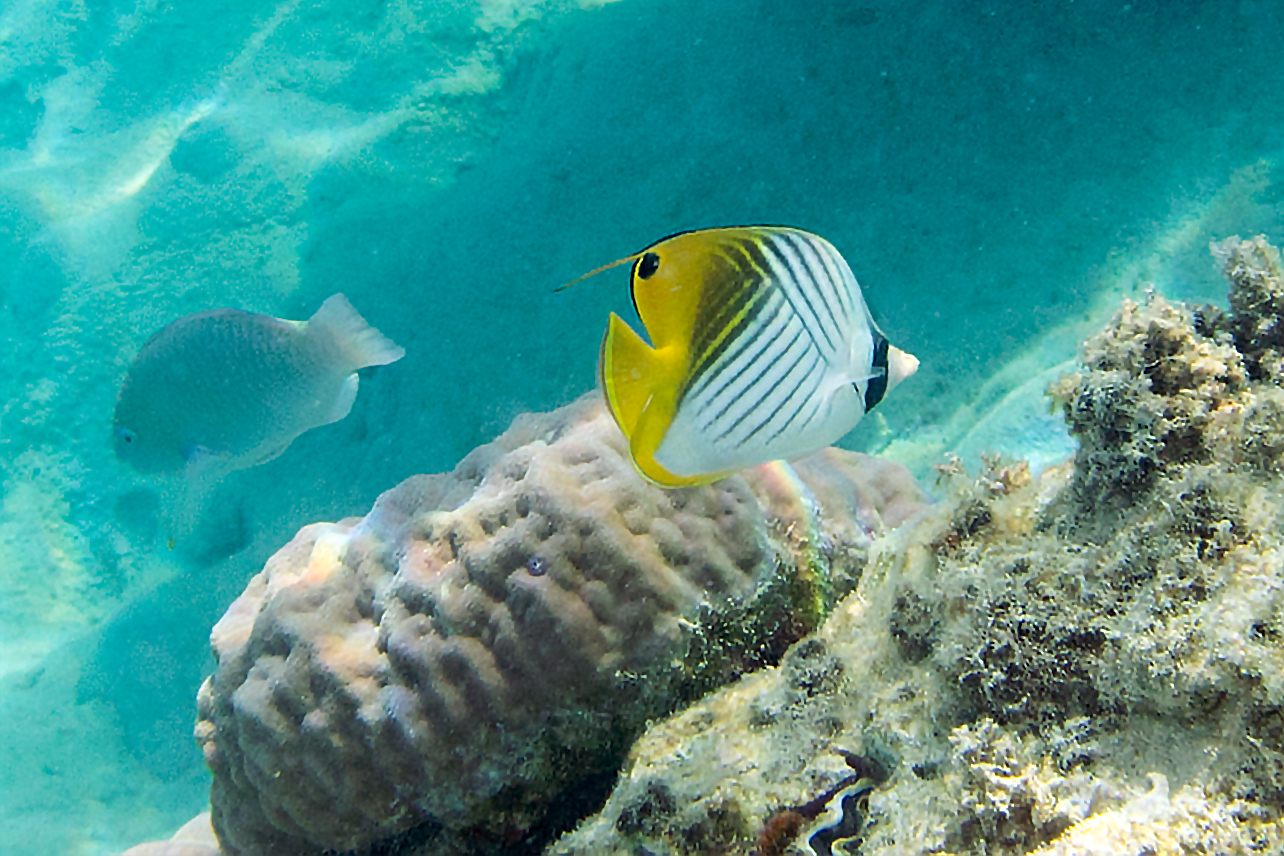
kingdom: Animalia
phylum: Chordata
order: Perciformes
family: Chaetodontidae
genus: Chaetodon
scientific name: Chaetodon auriga
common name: Threadfin butterflyfish
